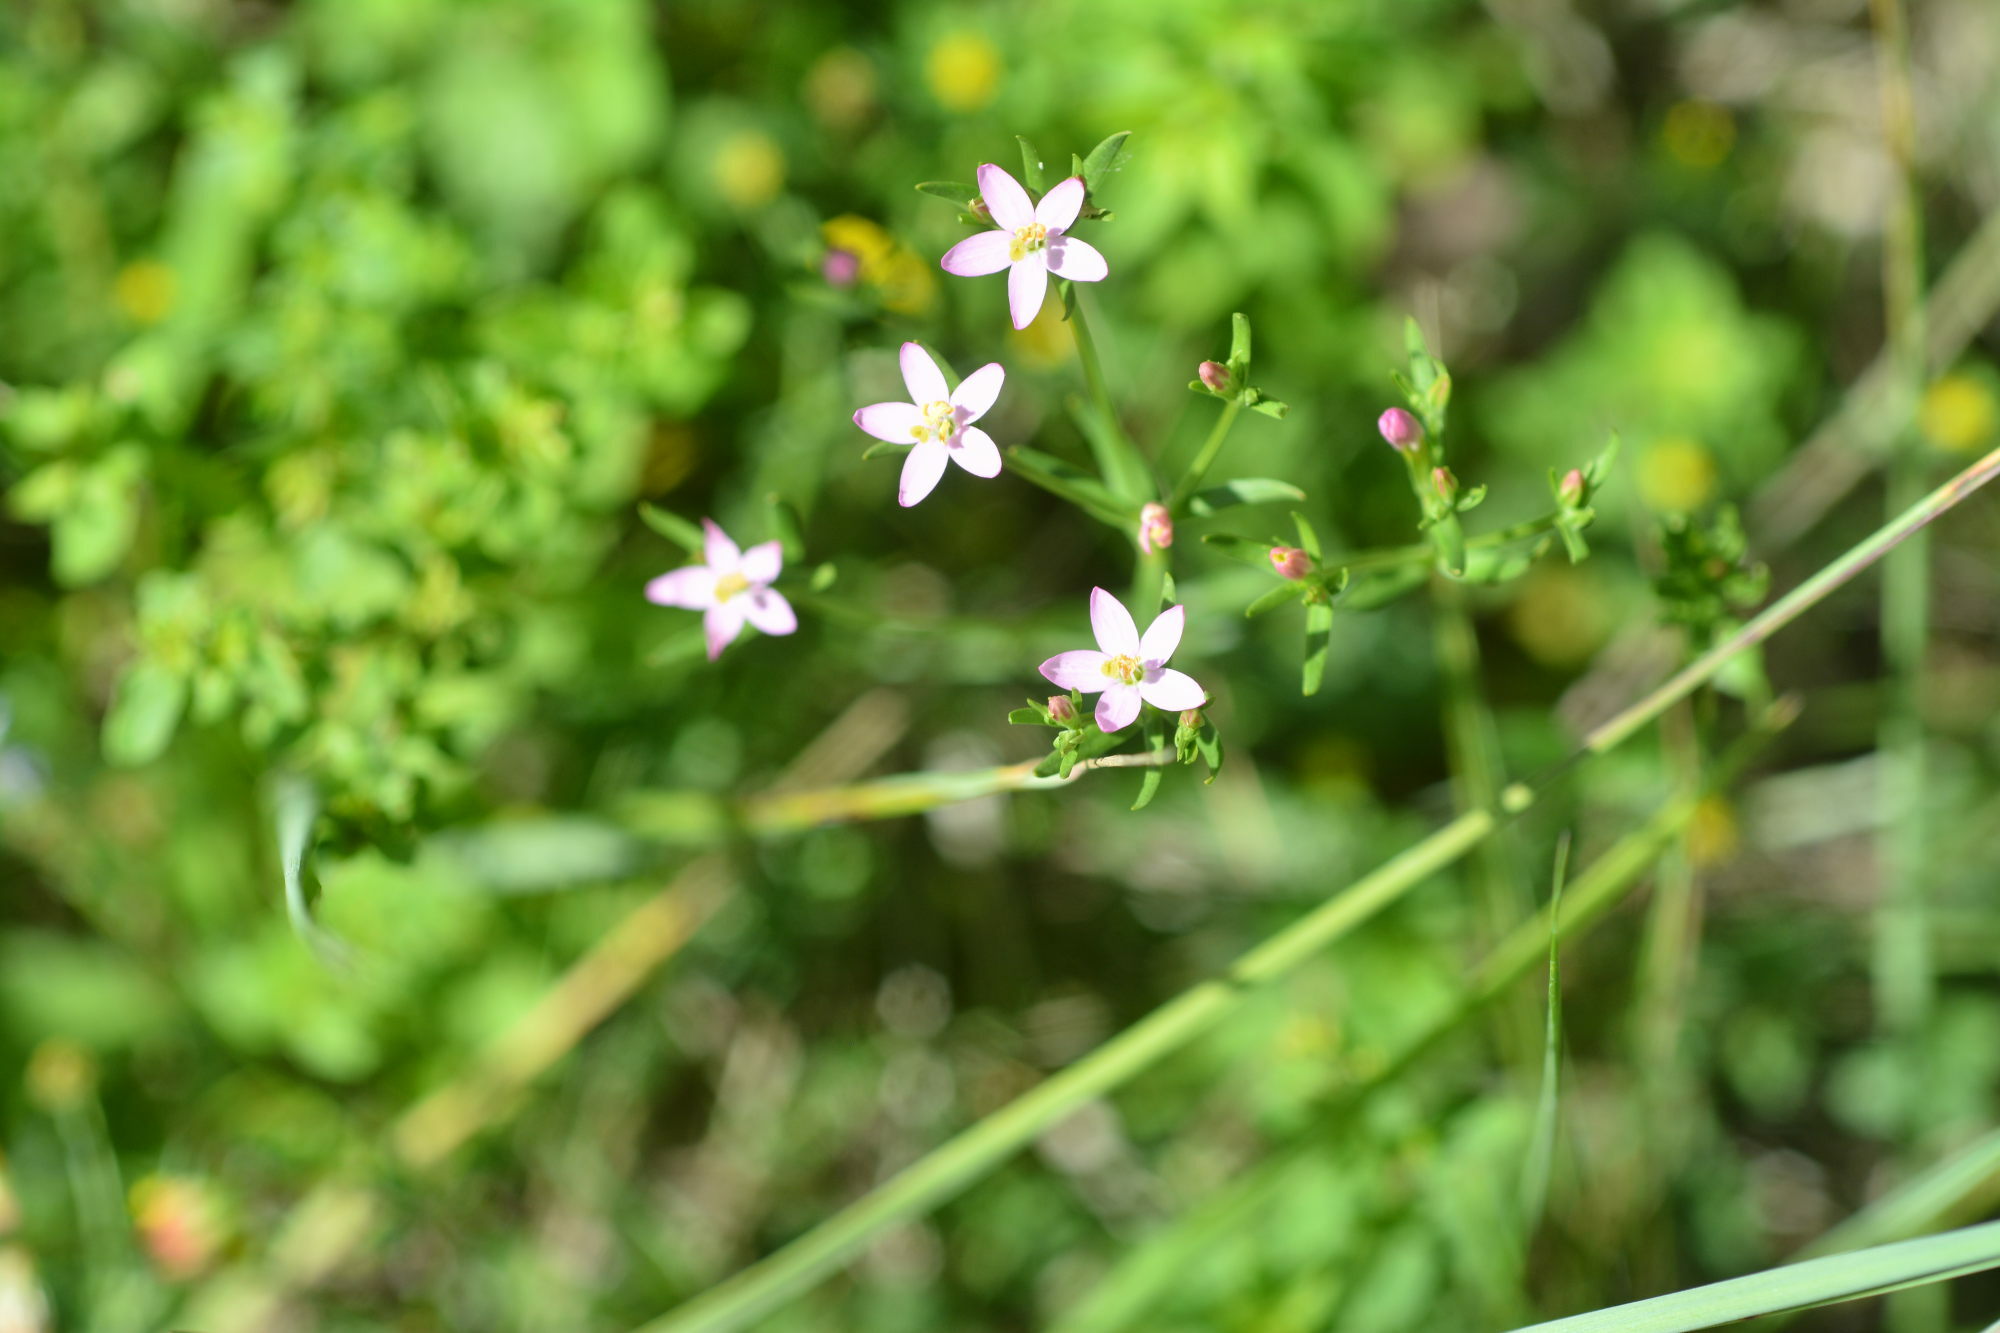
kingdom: Plantae
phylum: Tracheophyta
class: Magnoliopsida
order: Gentianales
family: Gentianaceae
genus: Centaurium
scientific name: Centaurium erythraea
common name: Common centaury
